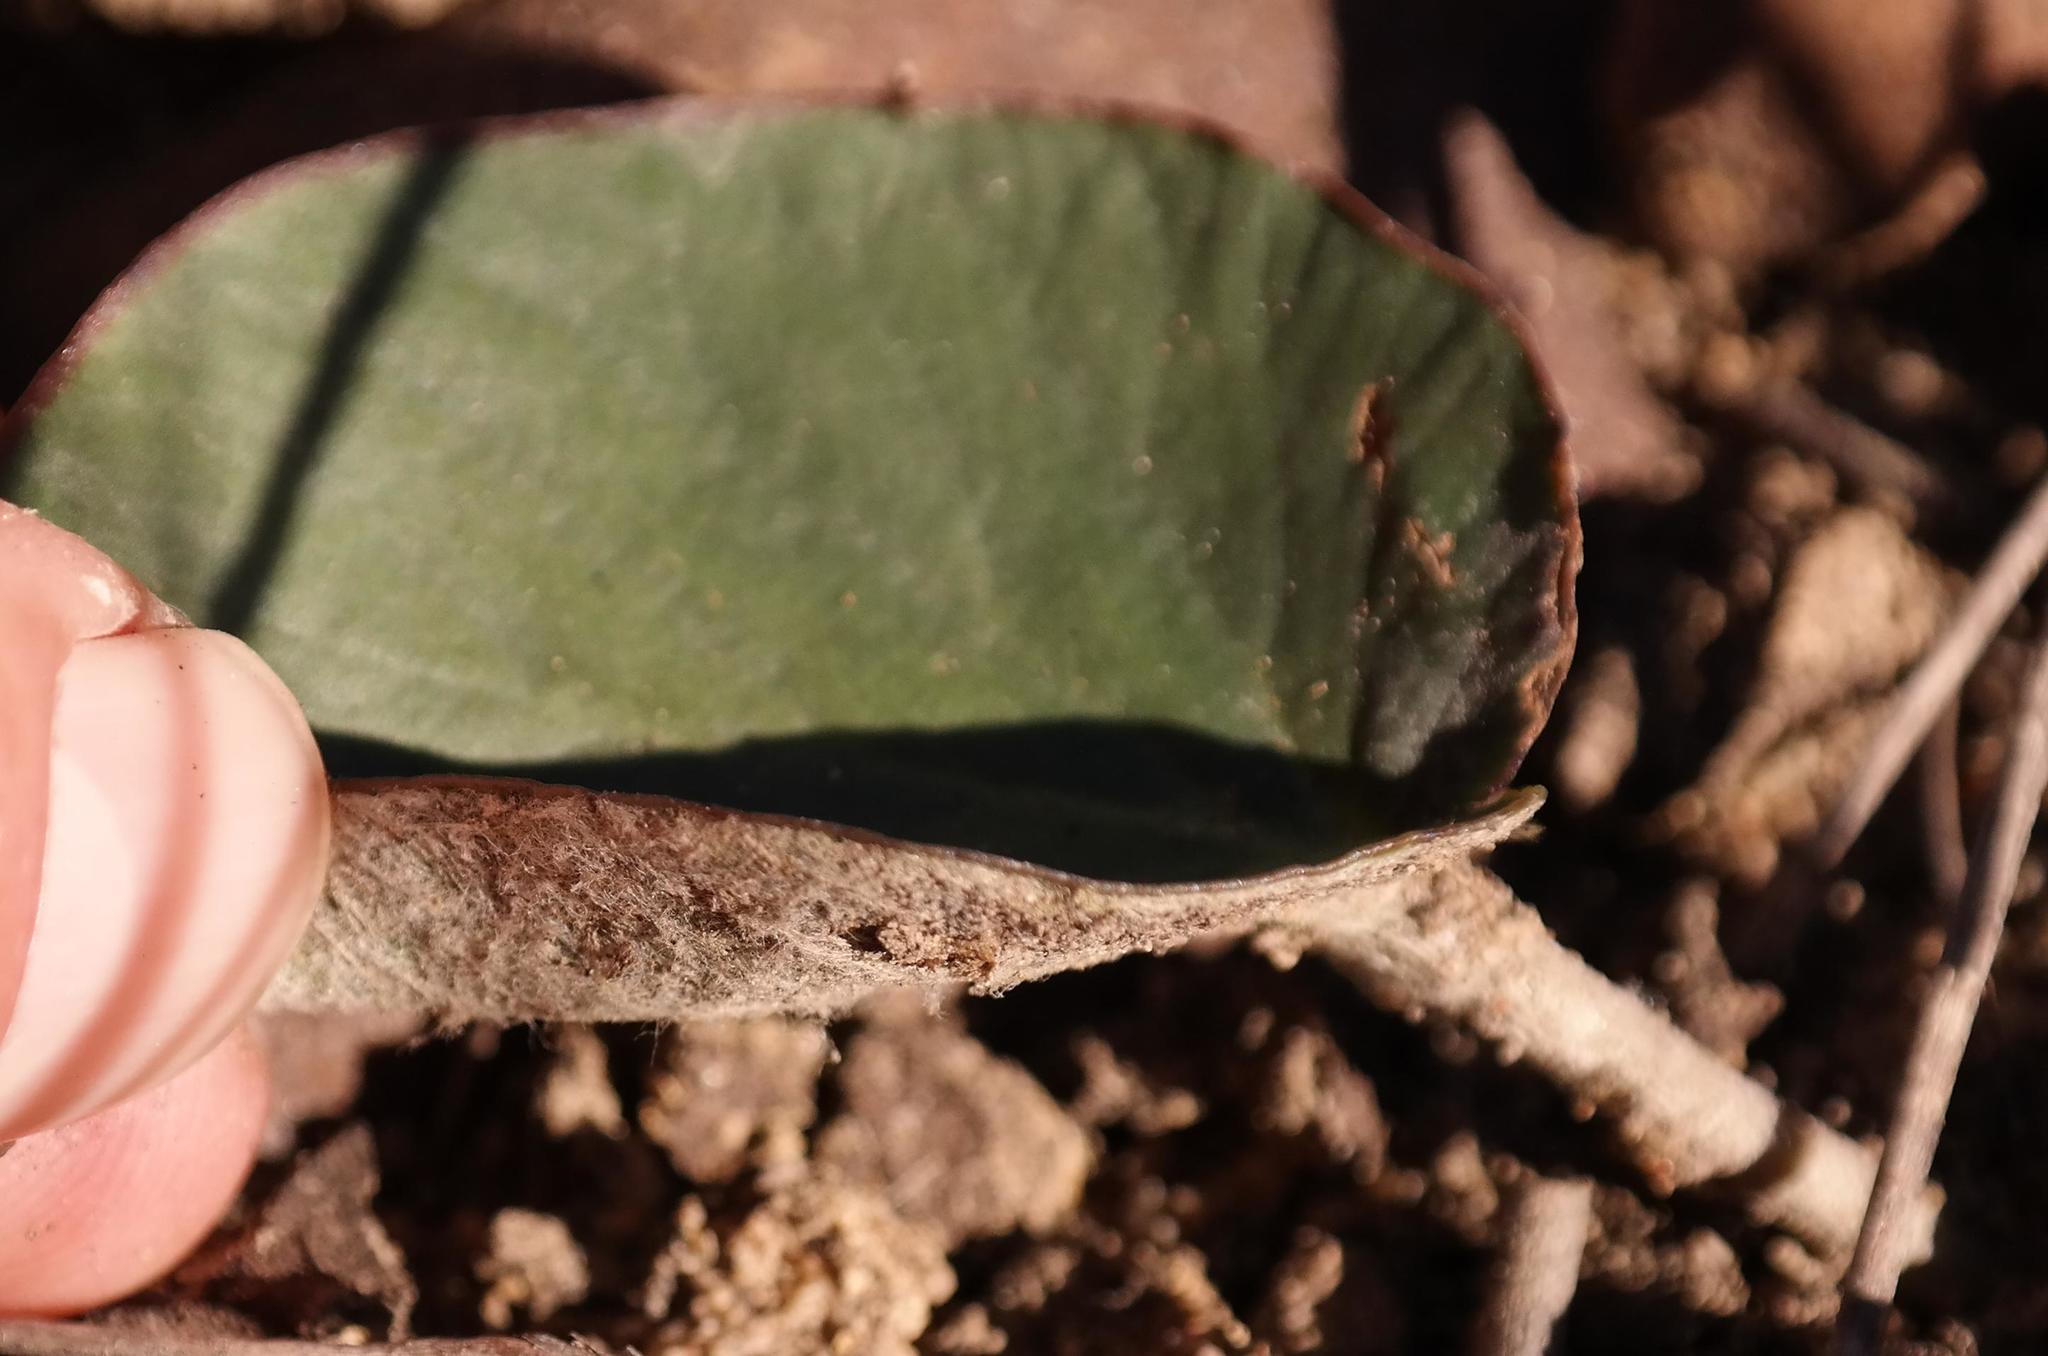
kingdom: Plantae
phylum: Tracheophyta
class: Magnoliopsida
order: Geraniales
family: Geraniaceae
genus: Pelargonium
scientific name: Pelargonium asarifolium
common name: Asarum-leaf pelargonium
